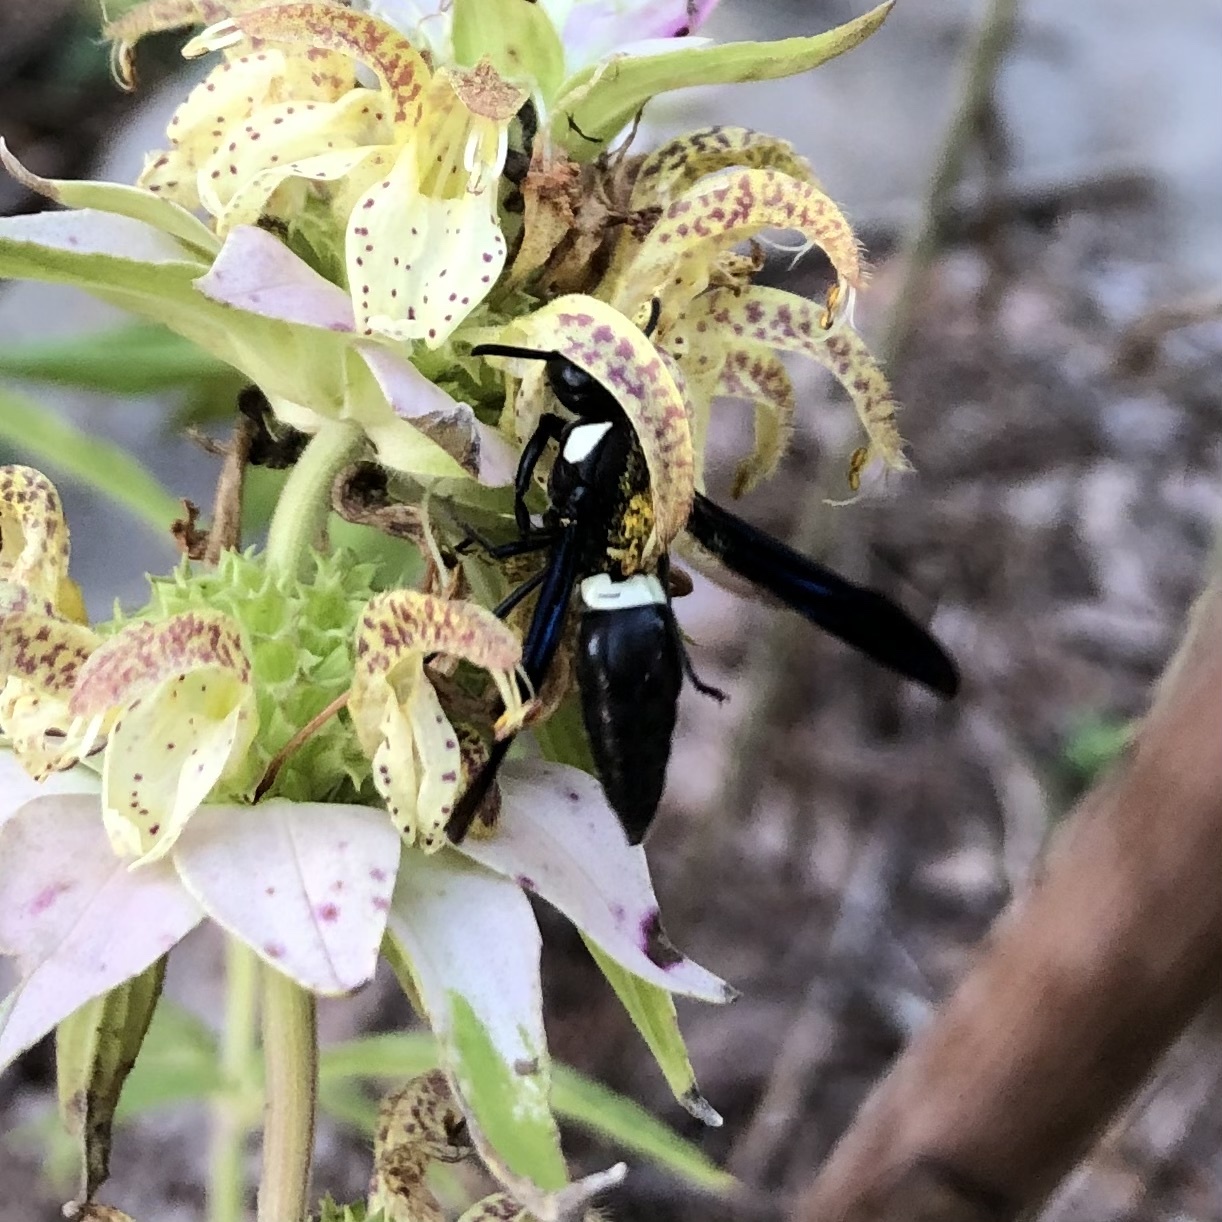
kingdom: Animalia
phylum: Arthropoda
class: Insecta
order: Hymenoptera
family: Eumenidae
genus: Monobia
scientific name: Monobia quadridens
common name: Four-toothed mason wasp
